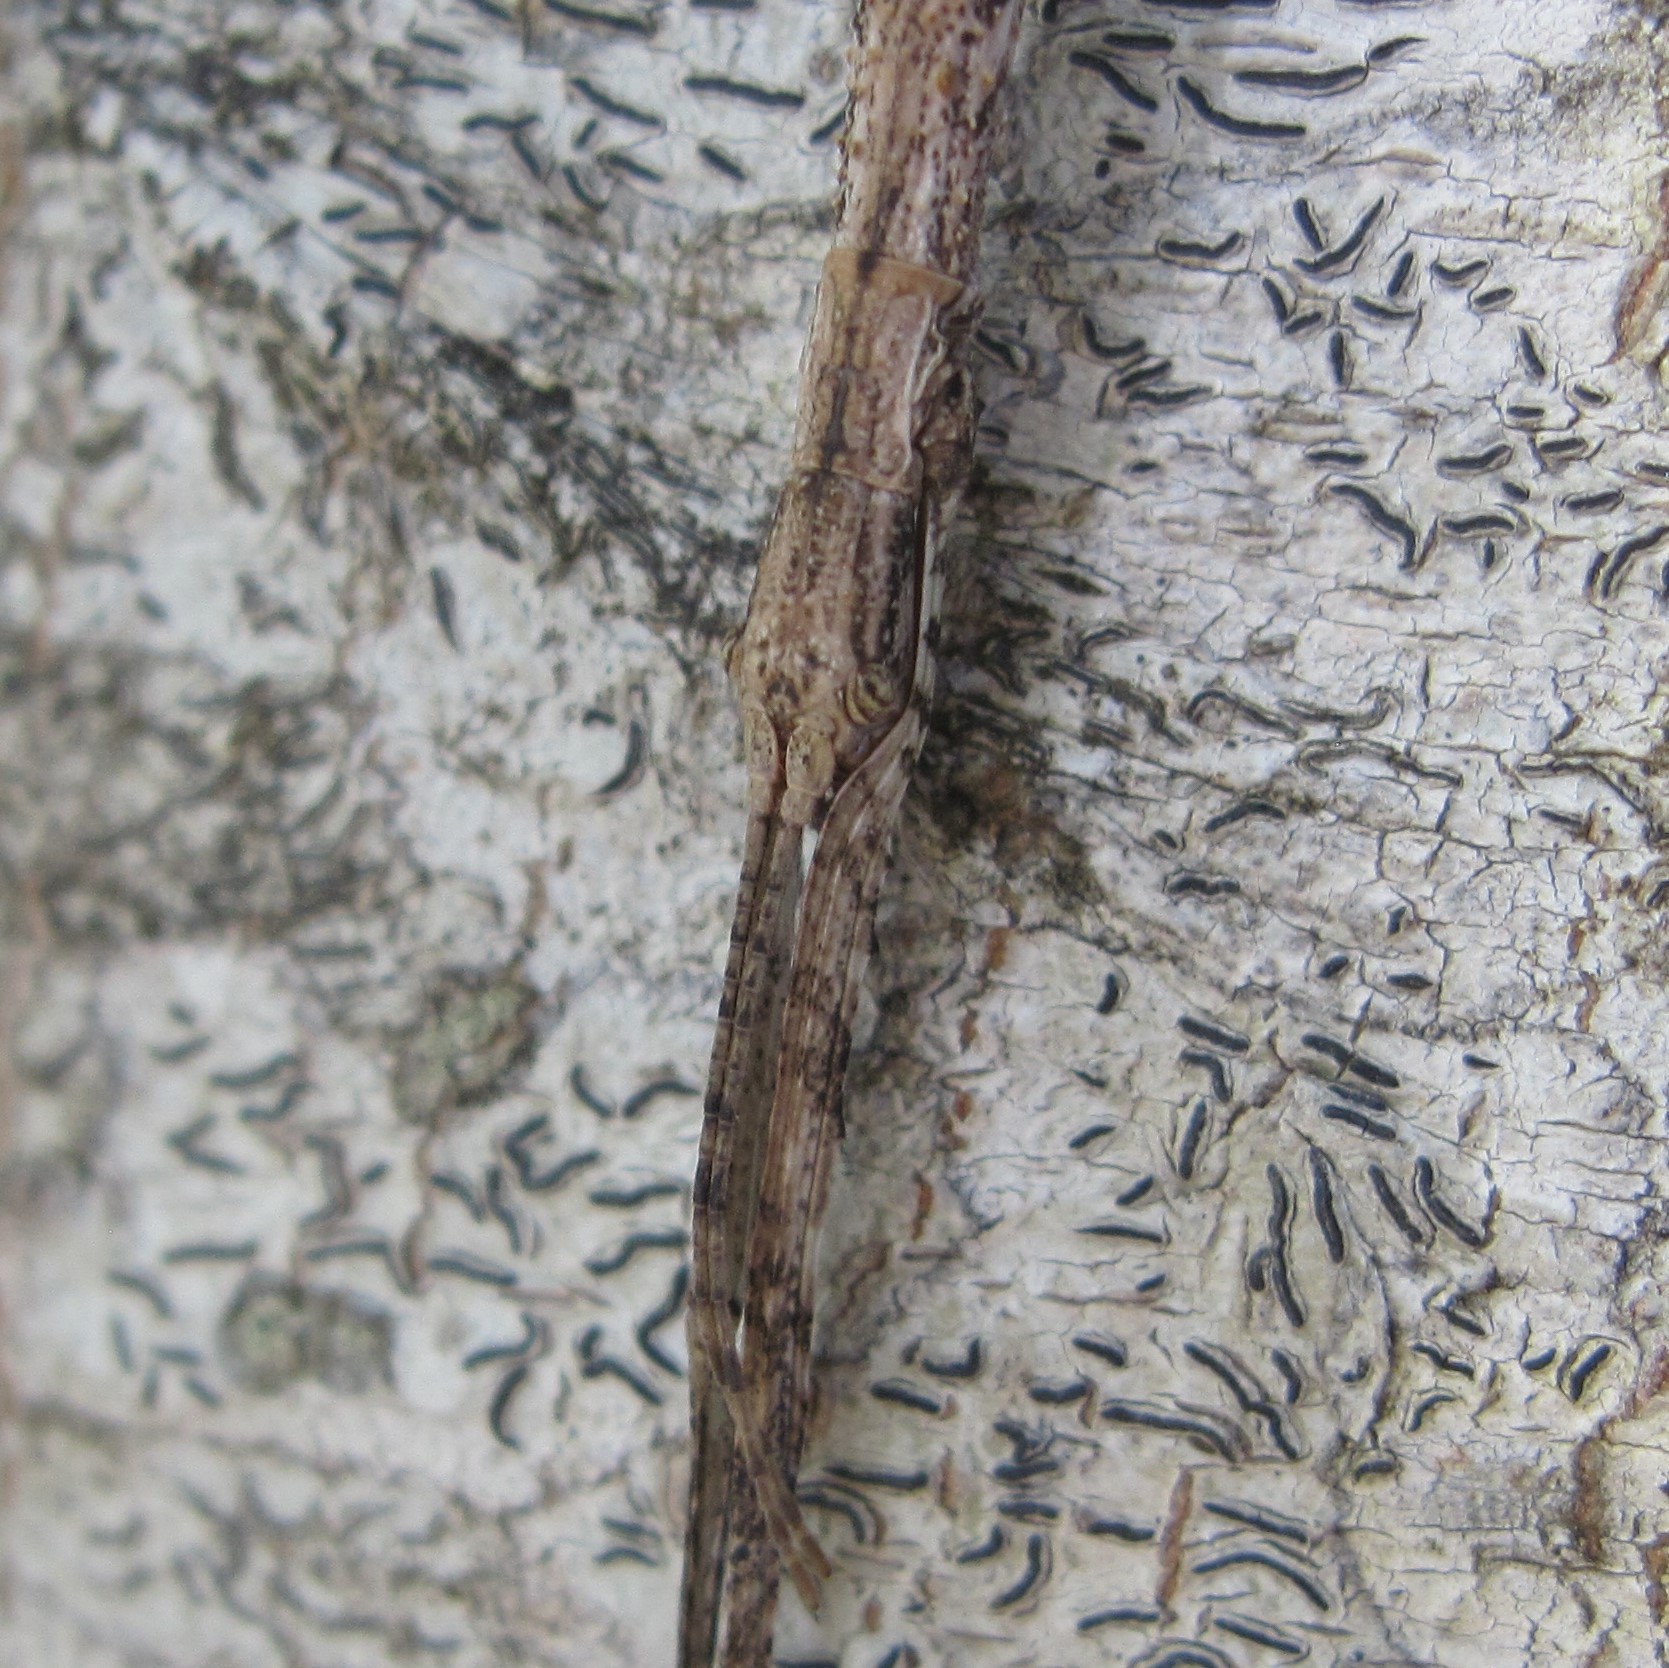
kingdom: Animalia
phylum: Arthropoda
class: Insecta
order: Phasmida
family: Phasmatidae
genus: Clitarchus
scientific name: Clitarchus hookeri
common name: Smooth stick insect
